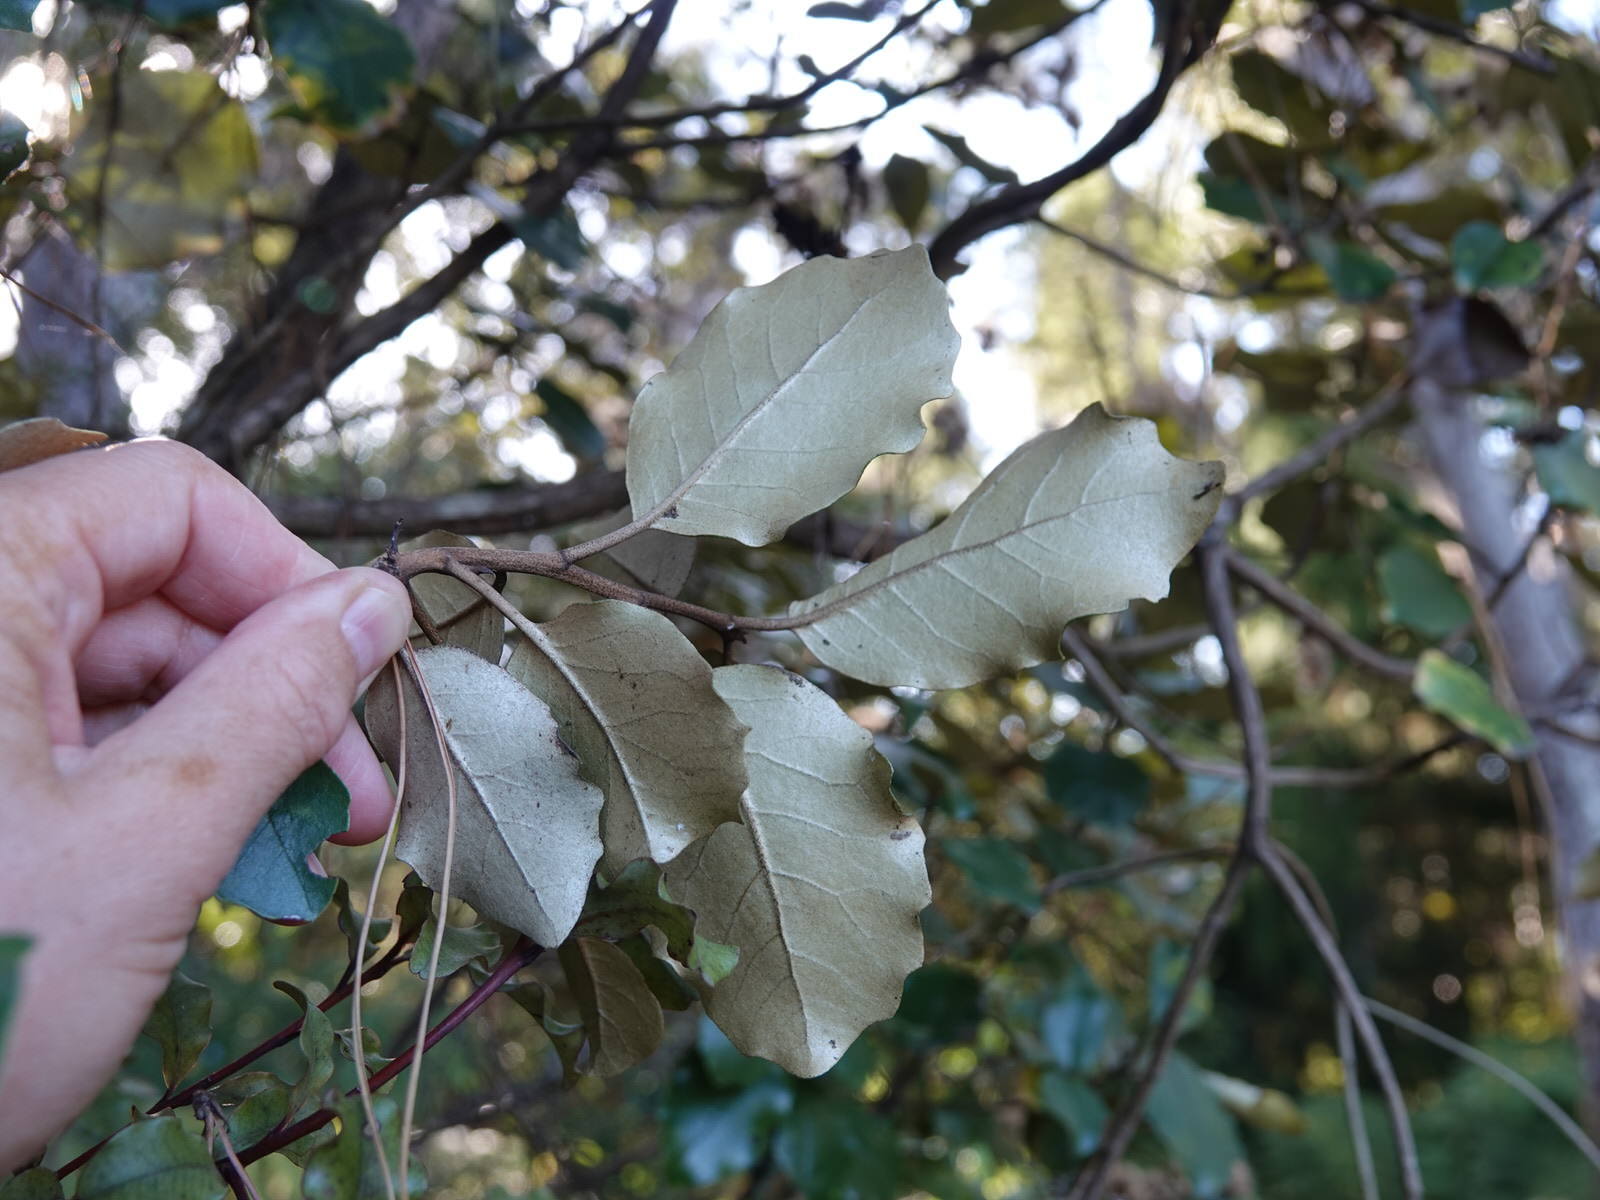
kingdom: Plantae
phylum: Tracheophyta
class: Magnoliopsida
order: Asterales
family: Asteraceae
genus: Olearia
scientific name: Olearia furfuracea
